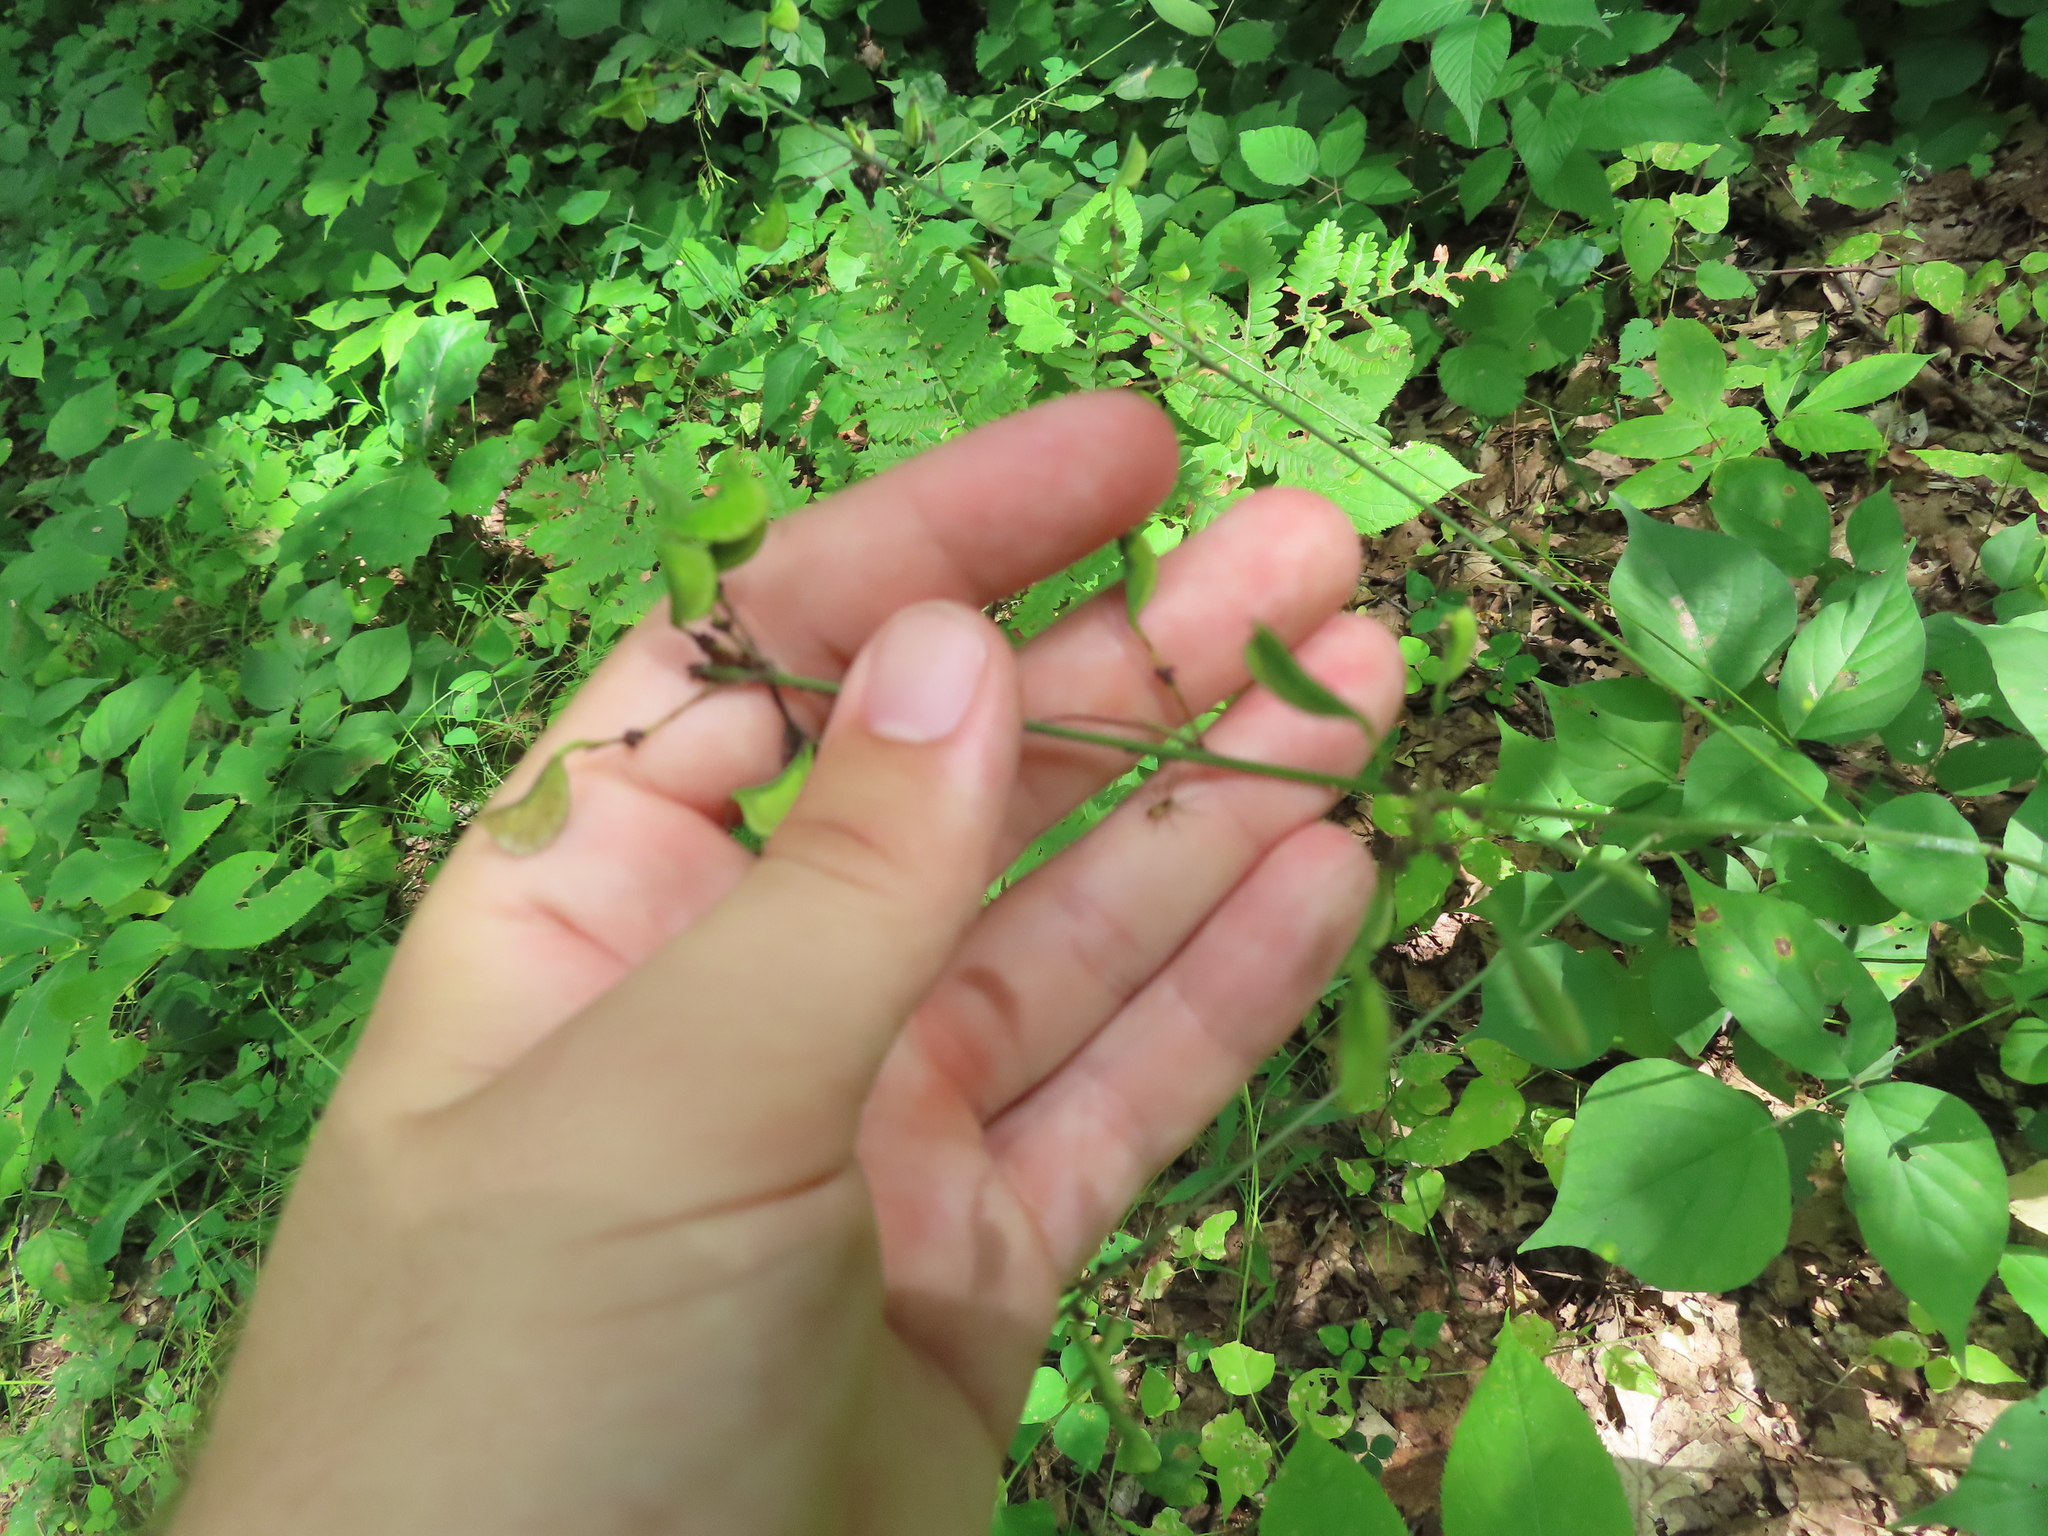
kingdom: Plantae
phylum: Tracheophyta
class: Magnoliopsida
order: Fabales
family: Fabaceae
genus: Hylodesmum
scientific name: Hylodesmum glutinosum
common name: Clustered-leaved tick-trefoil
